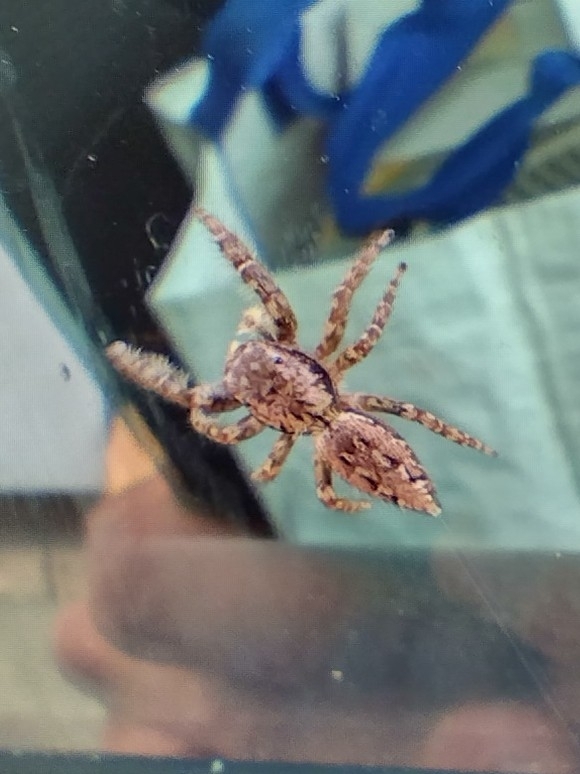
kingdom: Animalia
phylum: Arthropoda
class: Arachnida
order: Araneae
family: Salticidae
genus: Marpissa
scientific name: Marpissa muscosa
